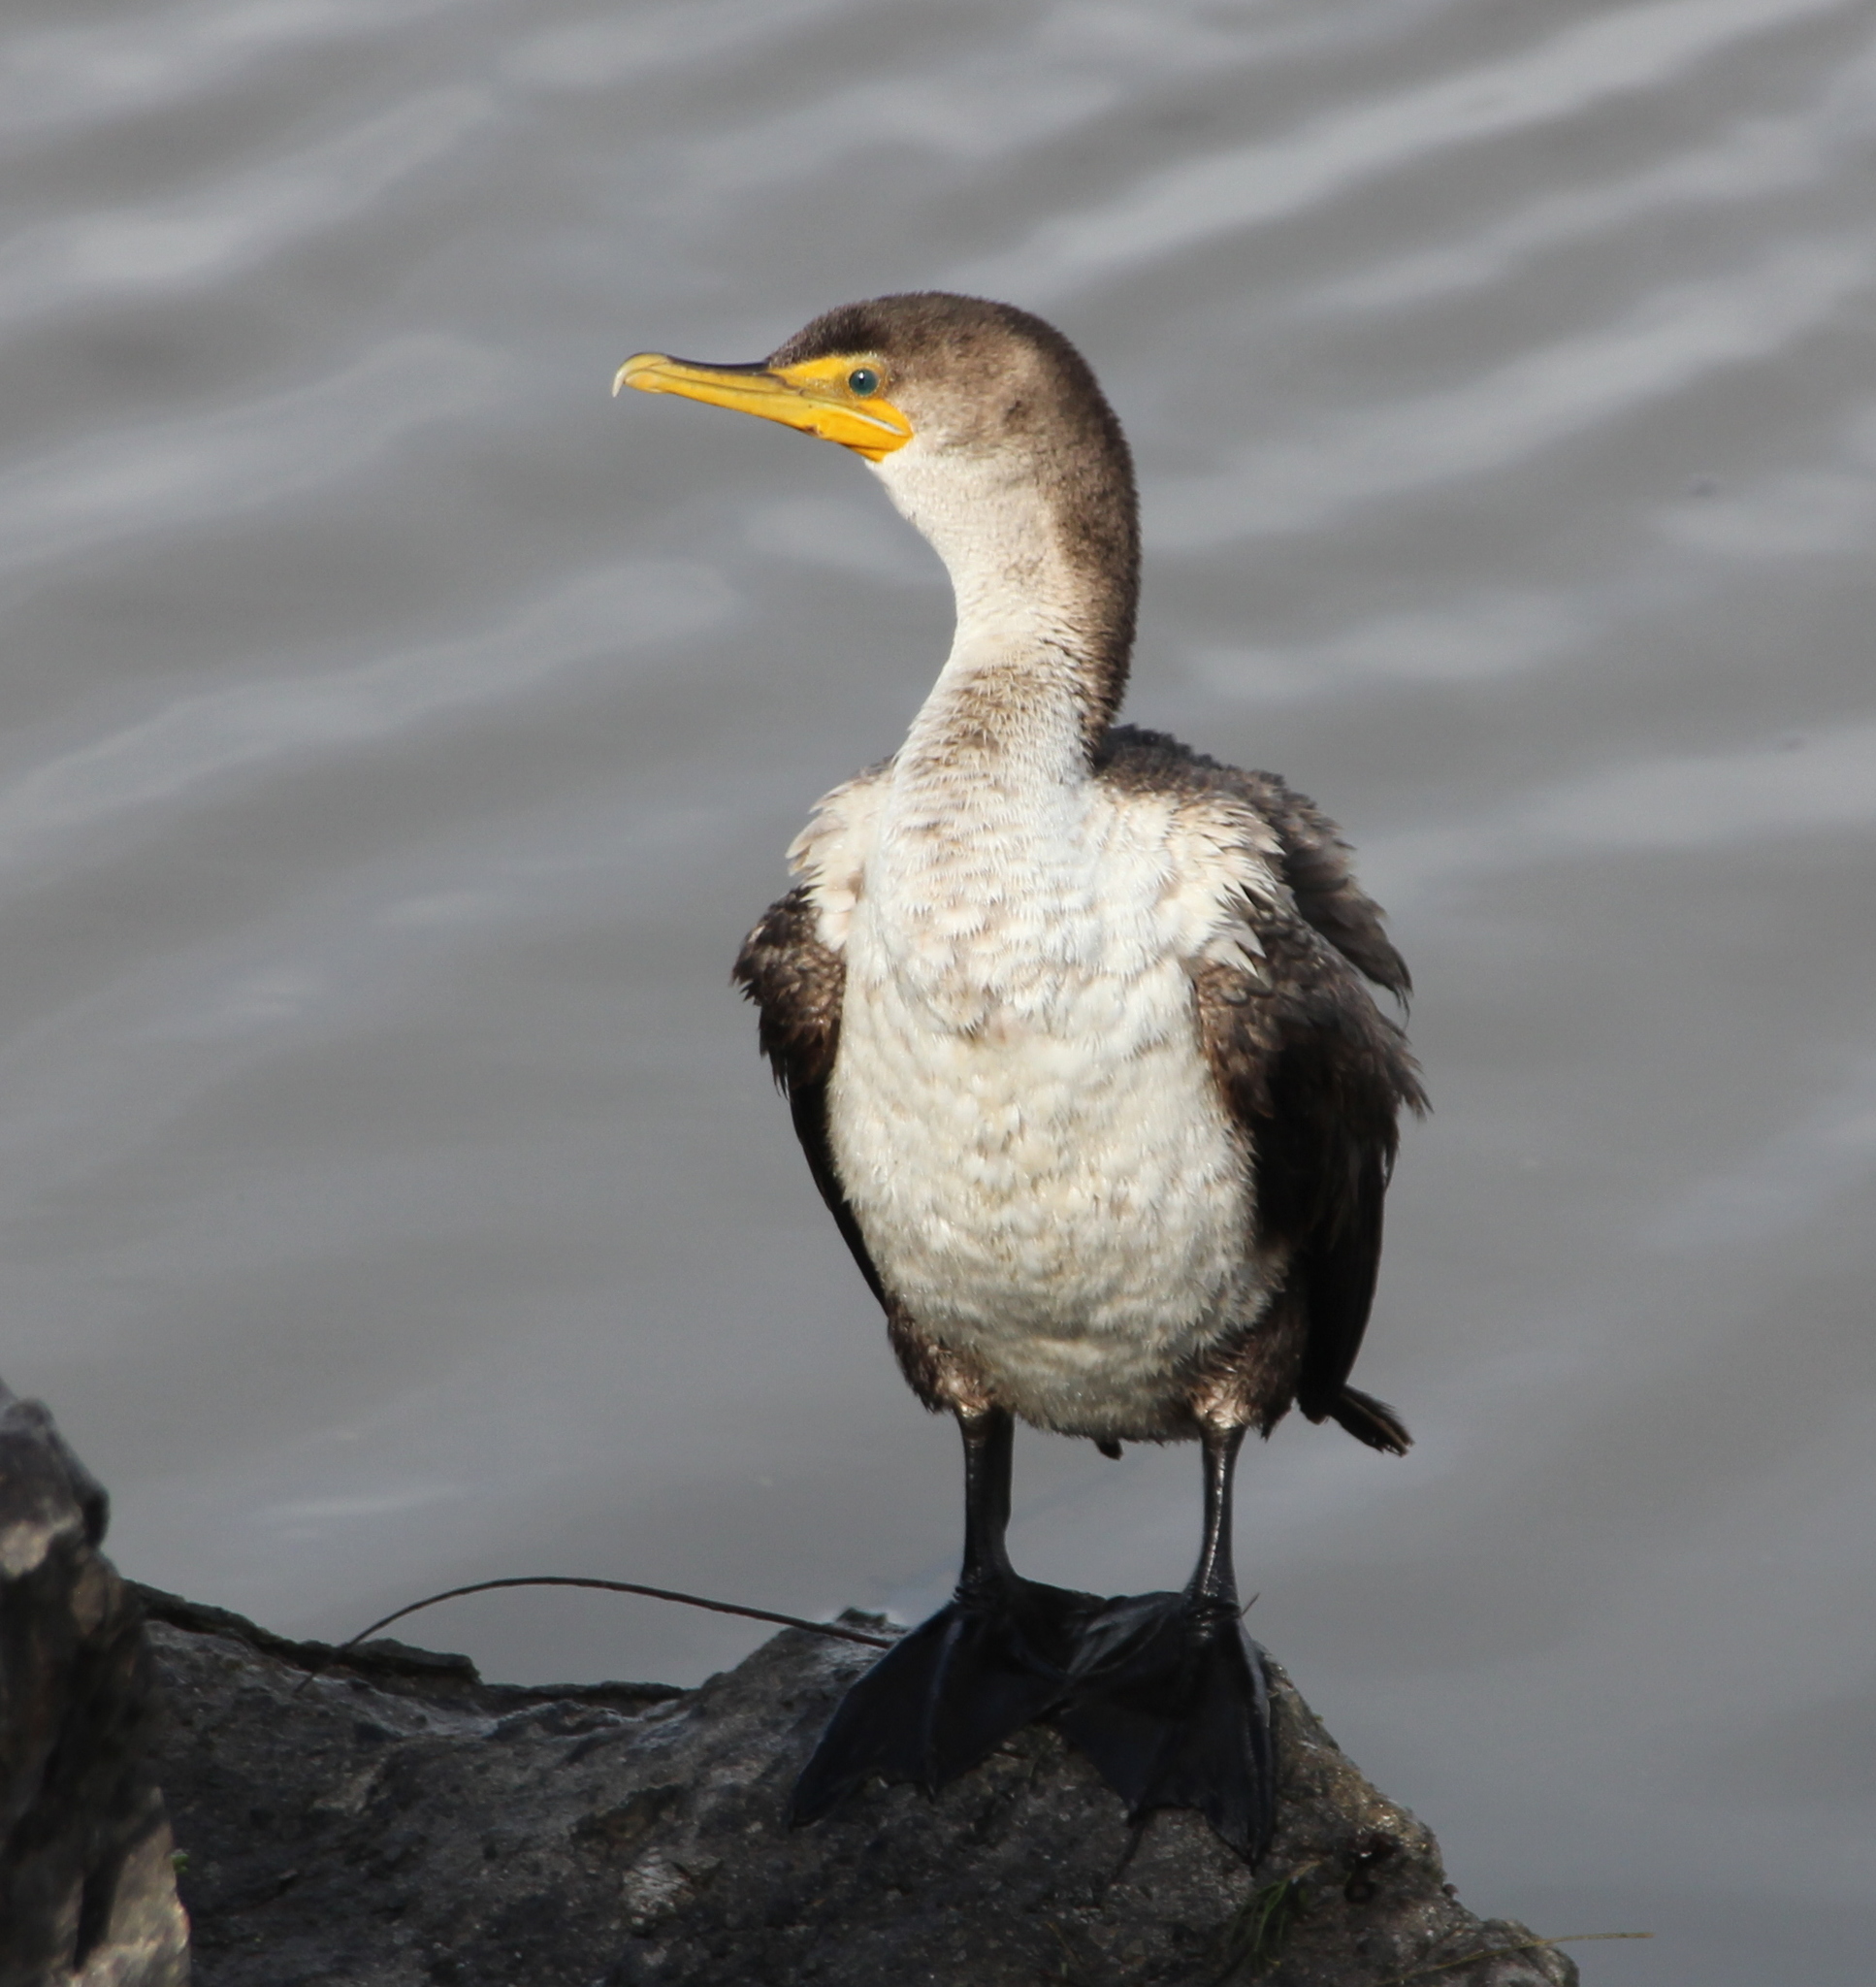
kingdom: Animalia
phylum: Chordata
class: Aves
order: Suliformes
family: Phalacrocoracidae
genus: Phalacrocorax
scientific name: Phalacrocorax auritus
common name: Double-crested cormorant
